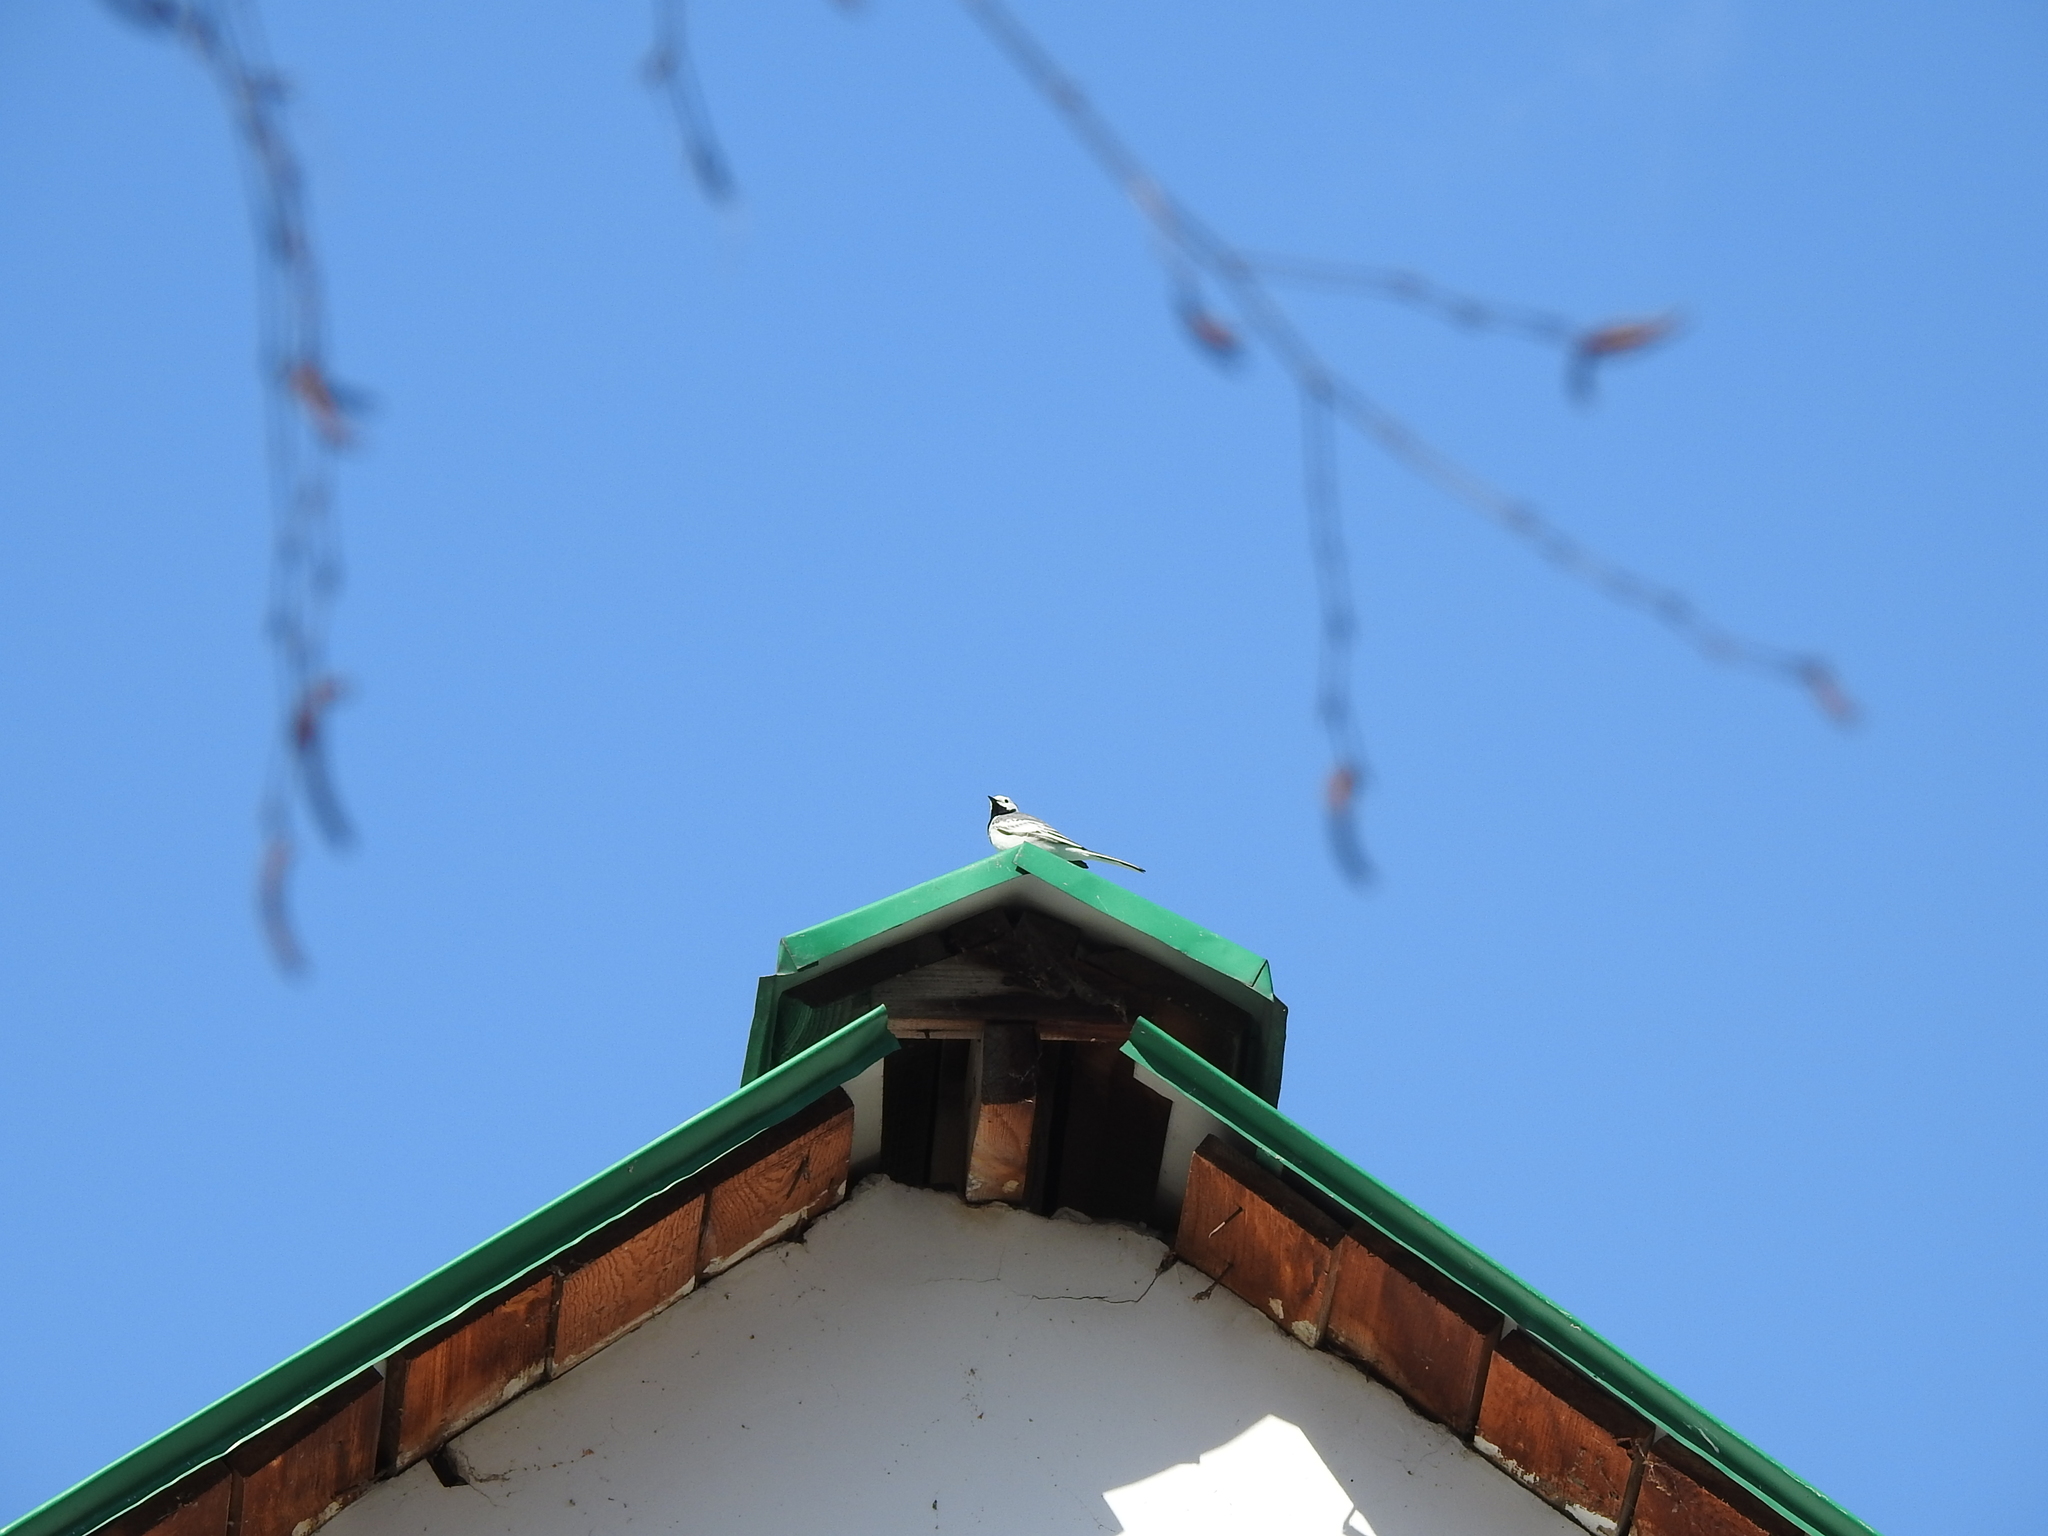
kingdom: Animalia
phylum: Chordata
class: Aves
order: Passeriformes
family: Motacillidae
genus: Motacilla
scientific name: Motacilla alba
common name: White wagtail
